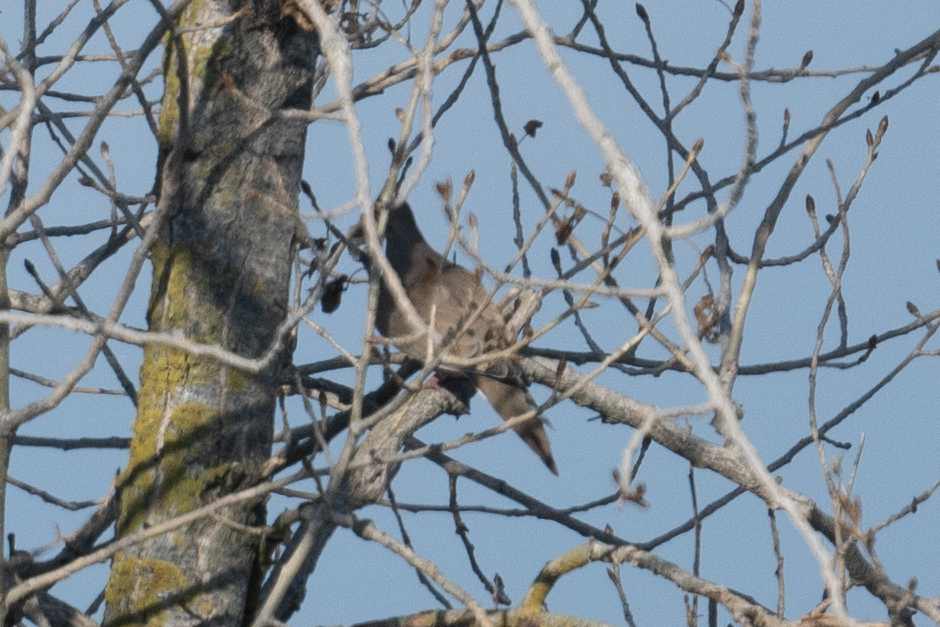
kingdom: Animalia
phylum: Chordata
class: Aves
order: Columbiformes
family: Columbidae
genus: Zenaida
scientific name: Zenaida macroura
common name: Mourning dove
